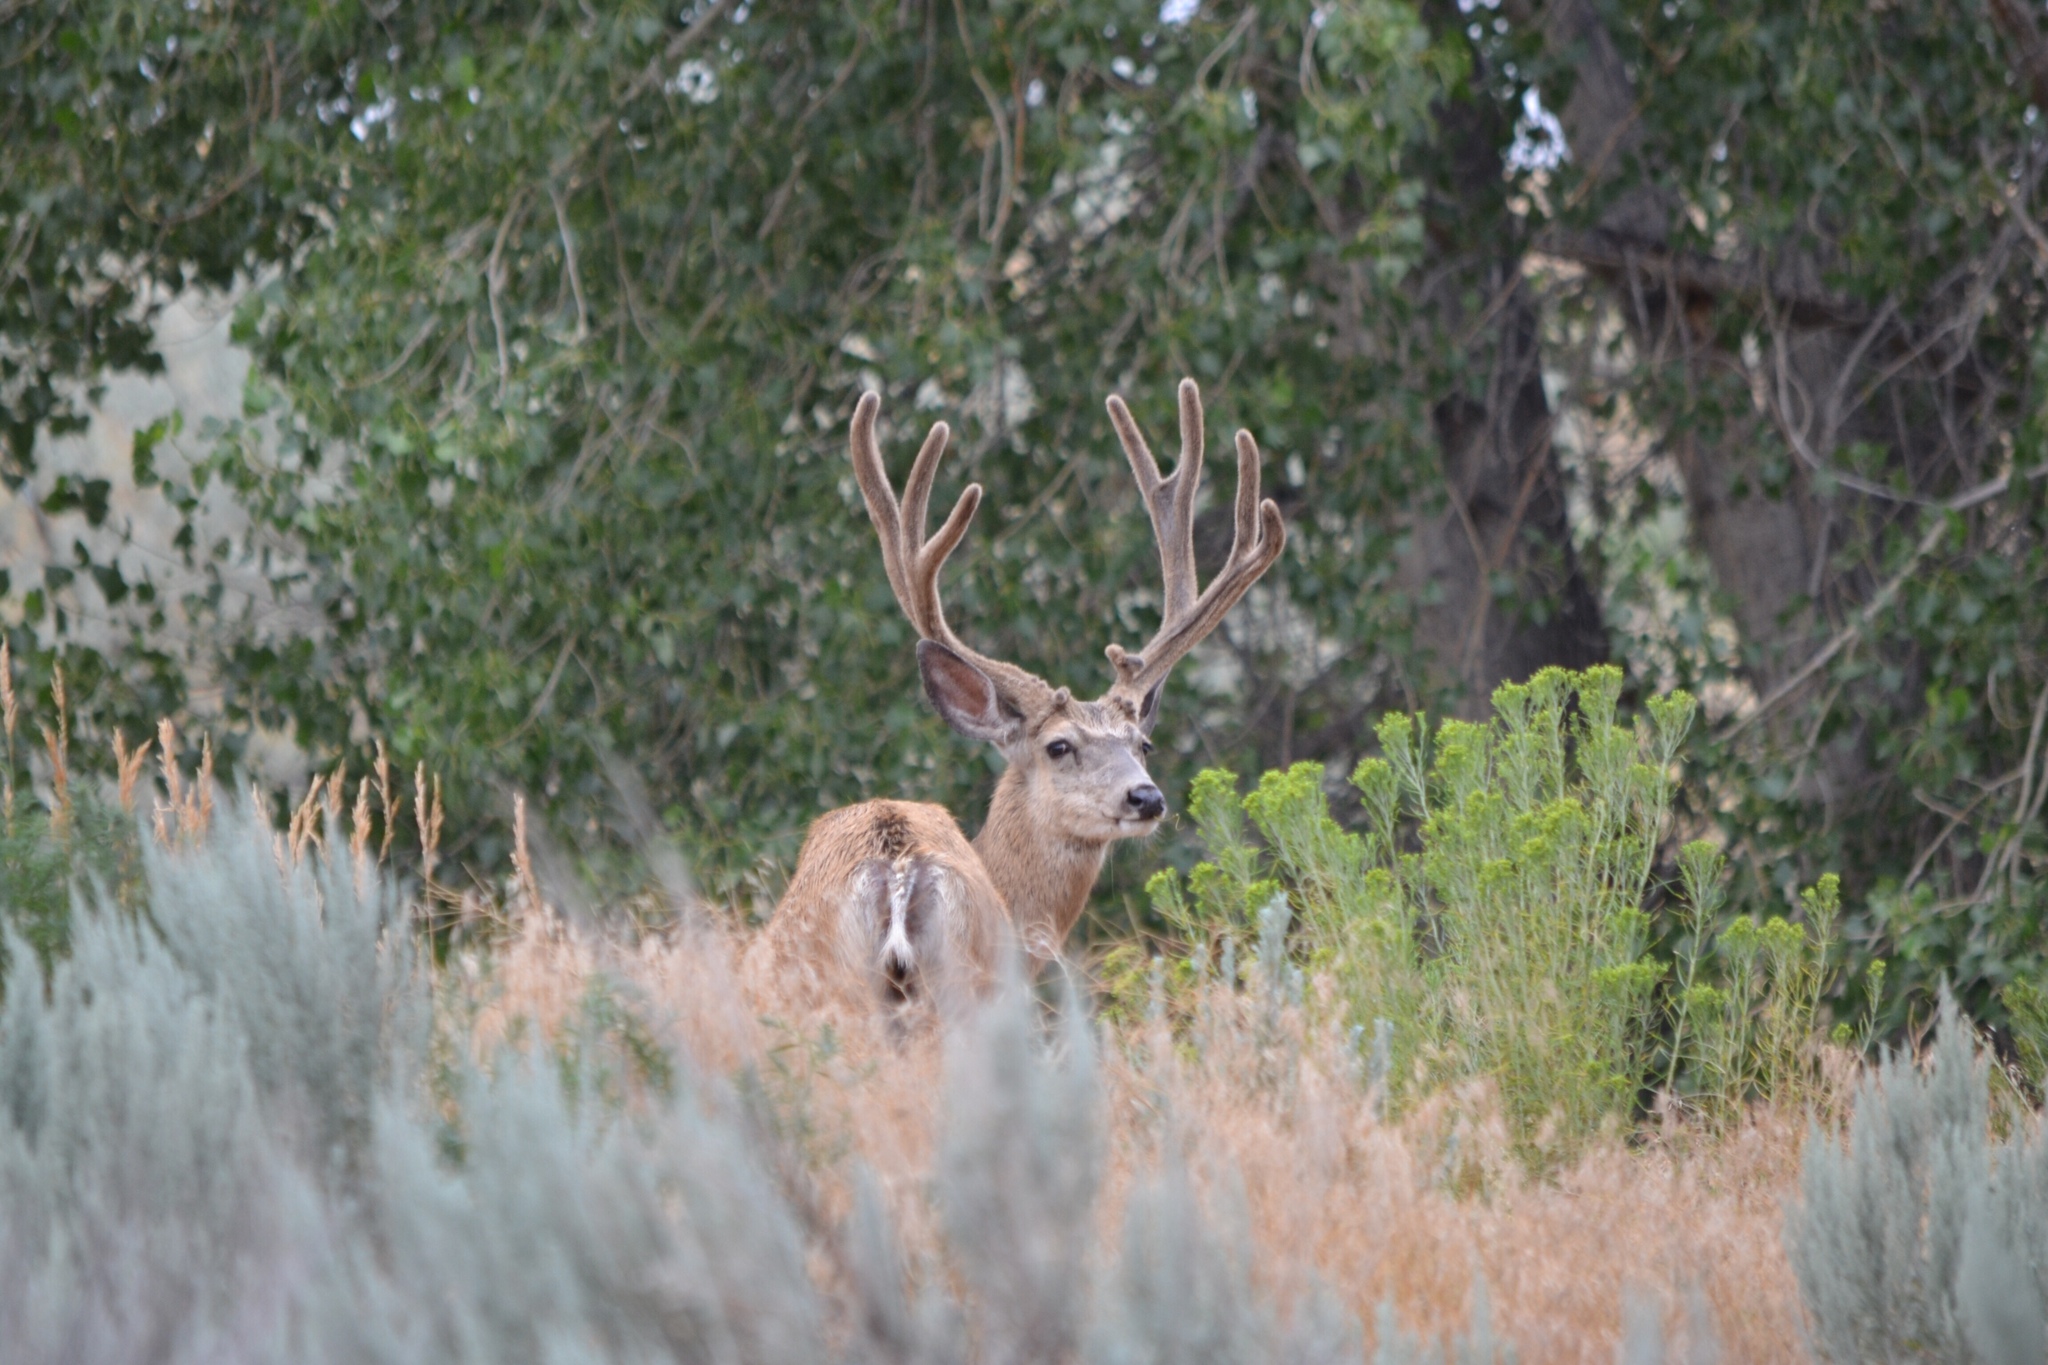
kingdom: Animalia
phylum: Chordata
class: Mammalia
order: Artiodactyla
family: Cervidae
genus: Odocoileus
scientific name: Odocoileus hemionus
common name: Mule deer
